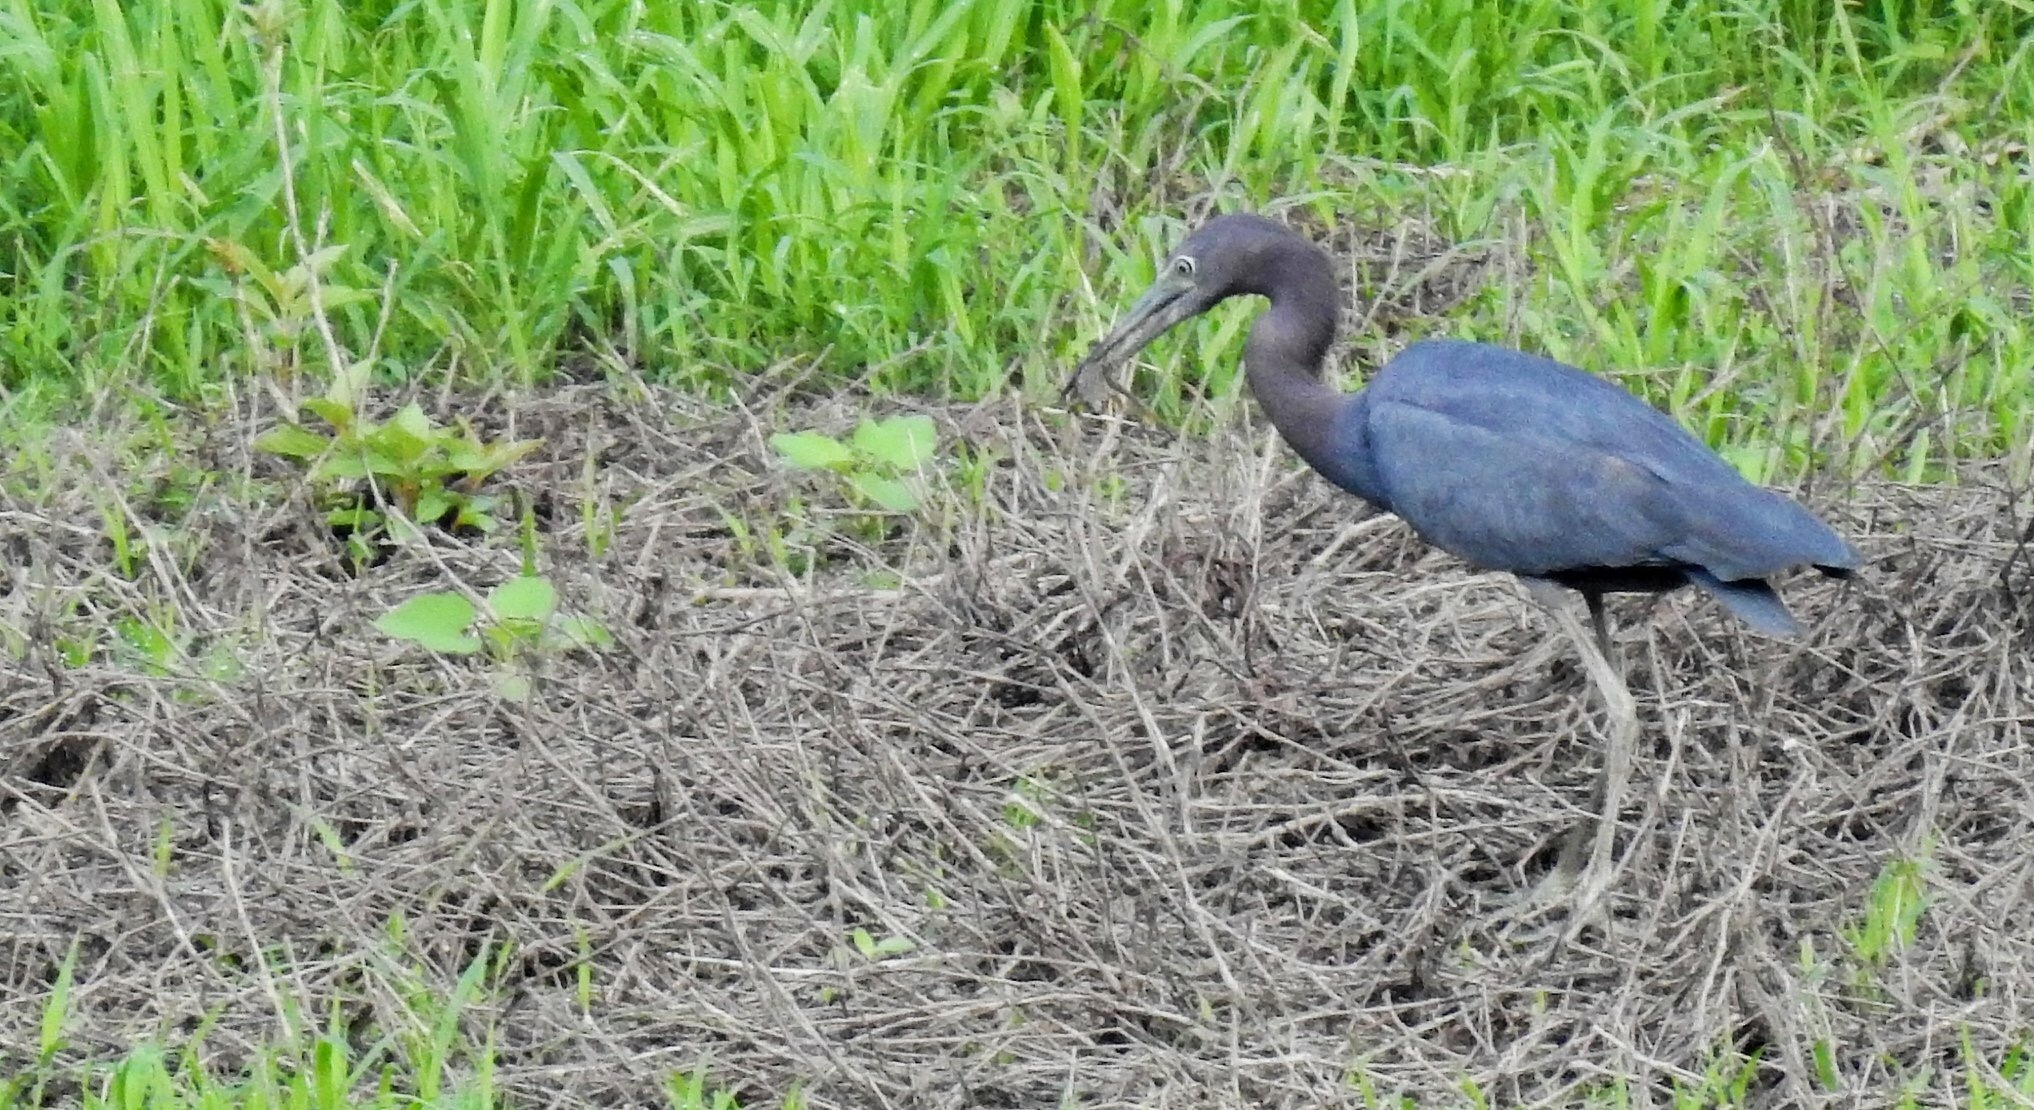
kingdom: Animalia
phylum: Chordata
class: Aves
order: Pelecaniformes
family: Ardeidae
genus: Egretta
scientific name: Egretta caerulea
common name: Little blue heron
